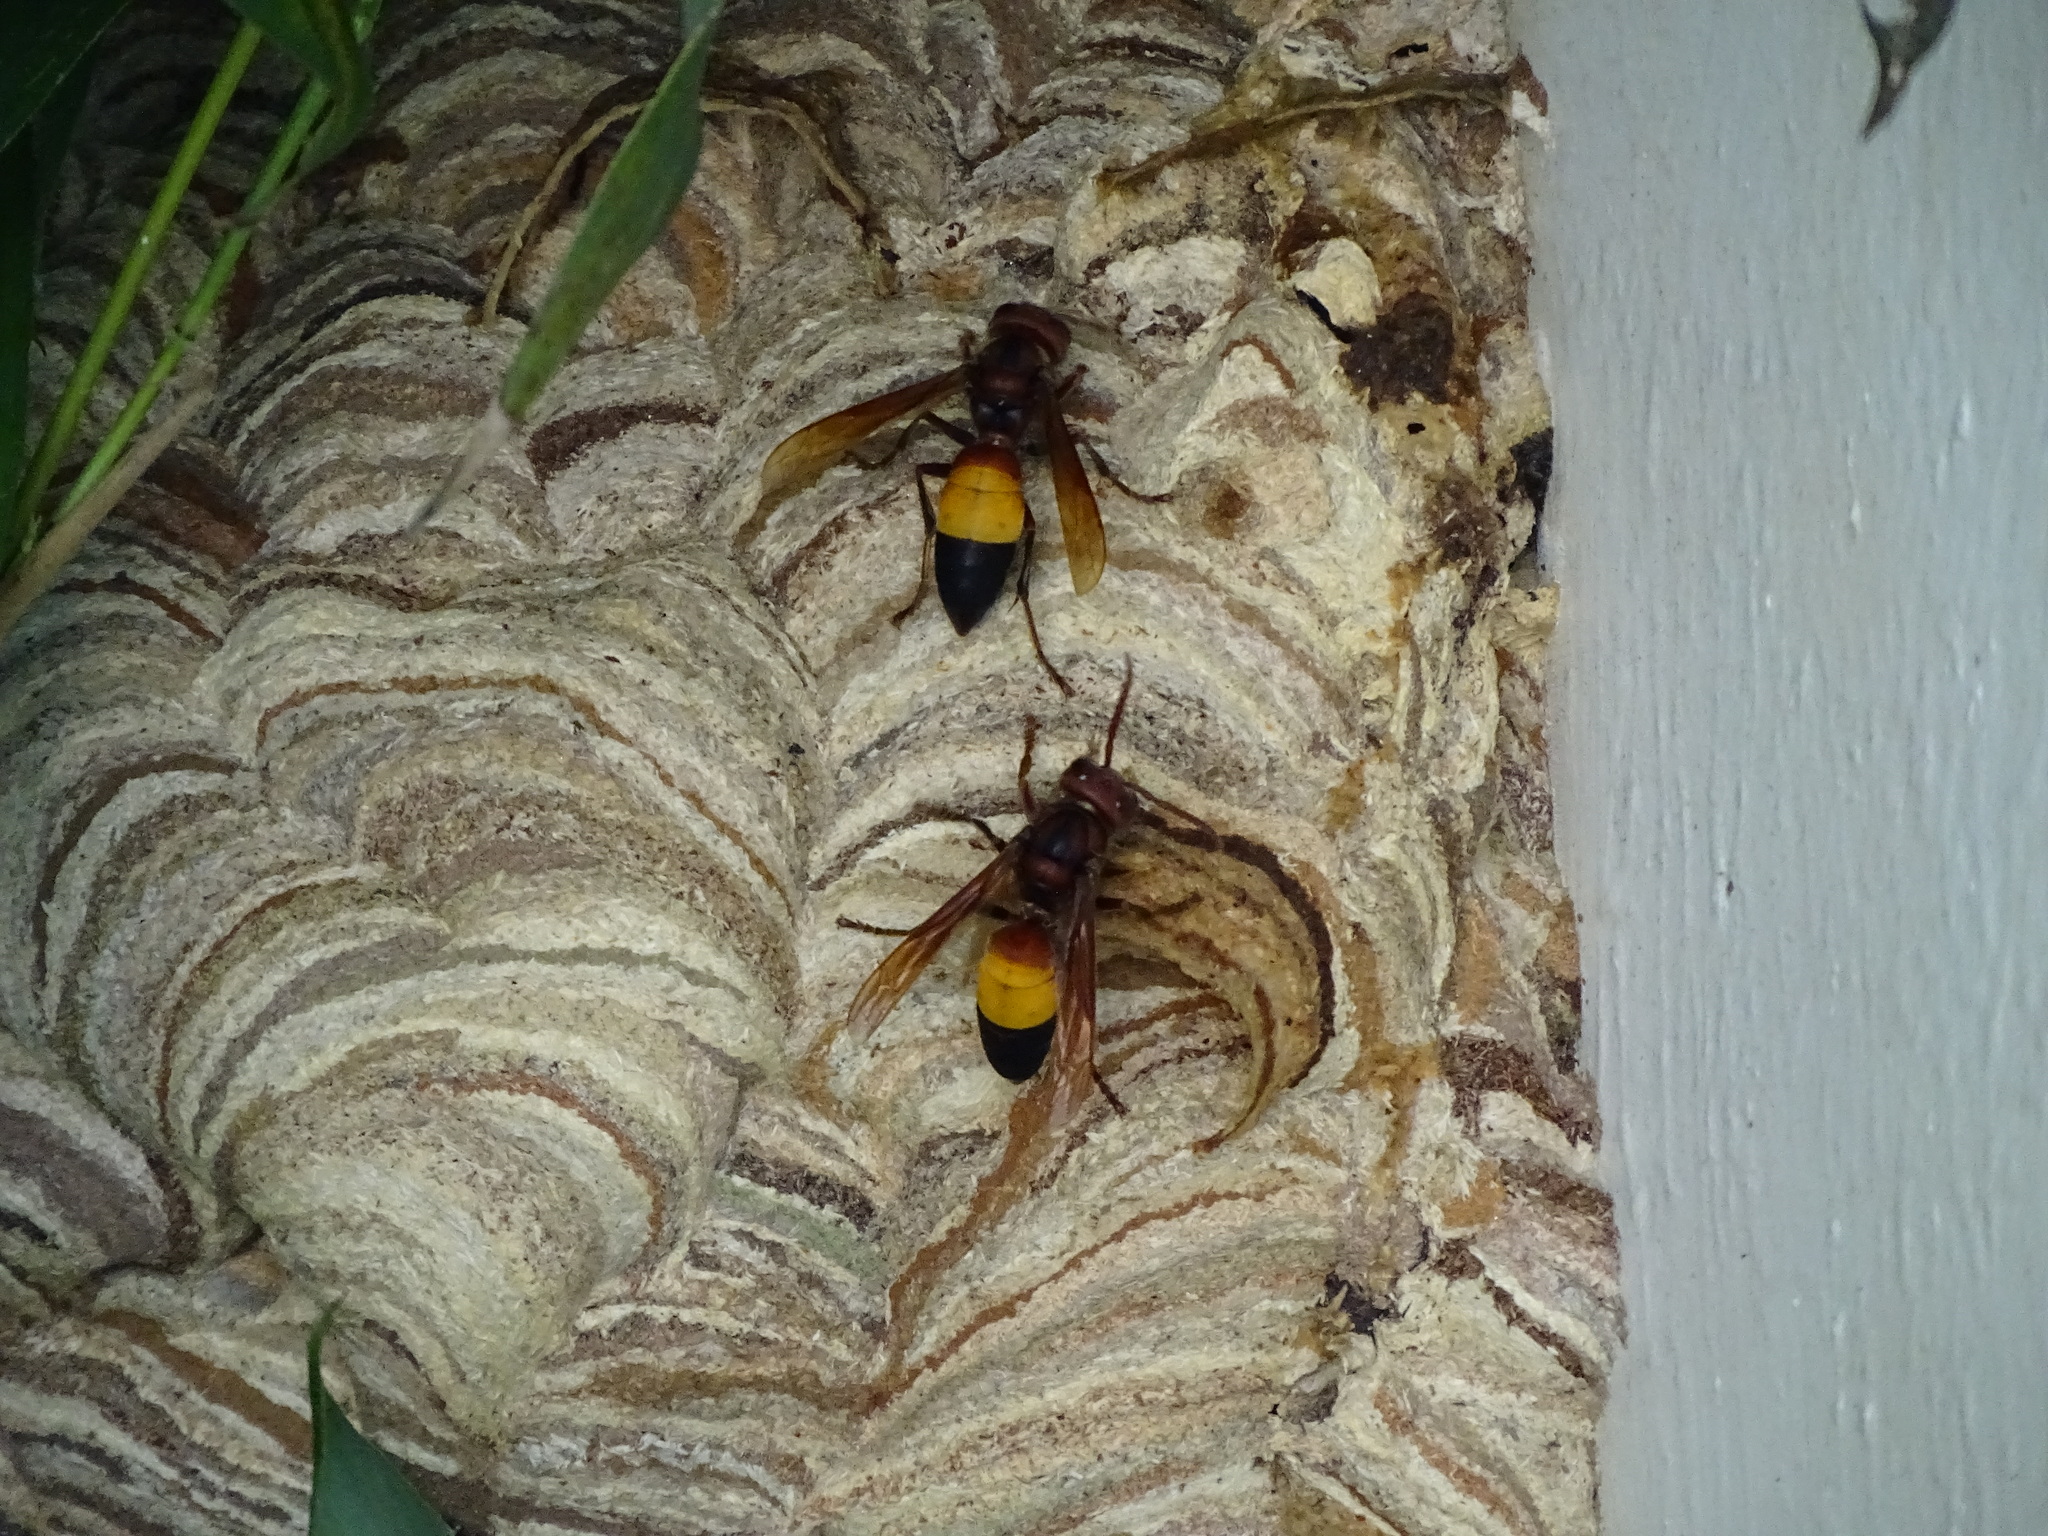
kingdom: Animalia
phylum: Arthropoda
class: Insecta
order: Hymenoptera
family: Vespidae
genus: Vespa
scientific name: Vespa affinis
